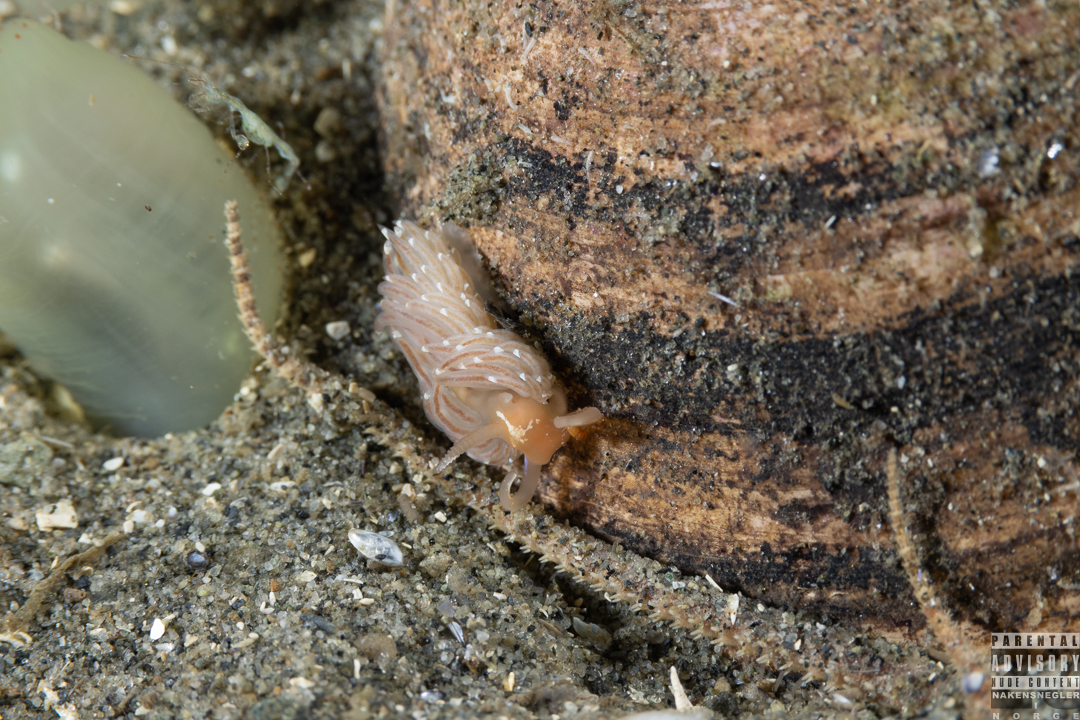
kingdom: Animalia
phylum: Mollusca
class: Gastropoda
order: Nudibranchia
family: Facelinidae
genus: Facelina
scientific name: Facelina bostoniensis
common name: Boston facelina
